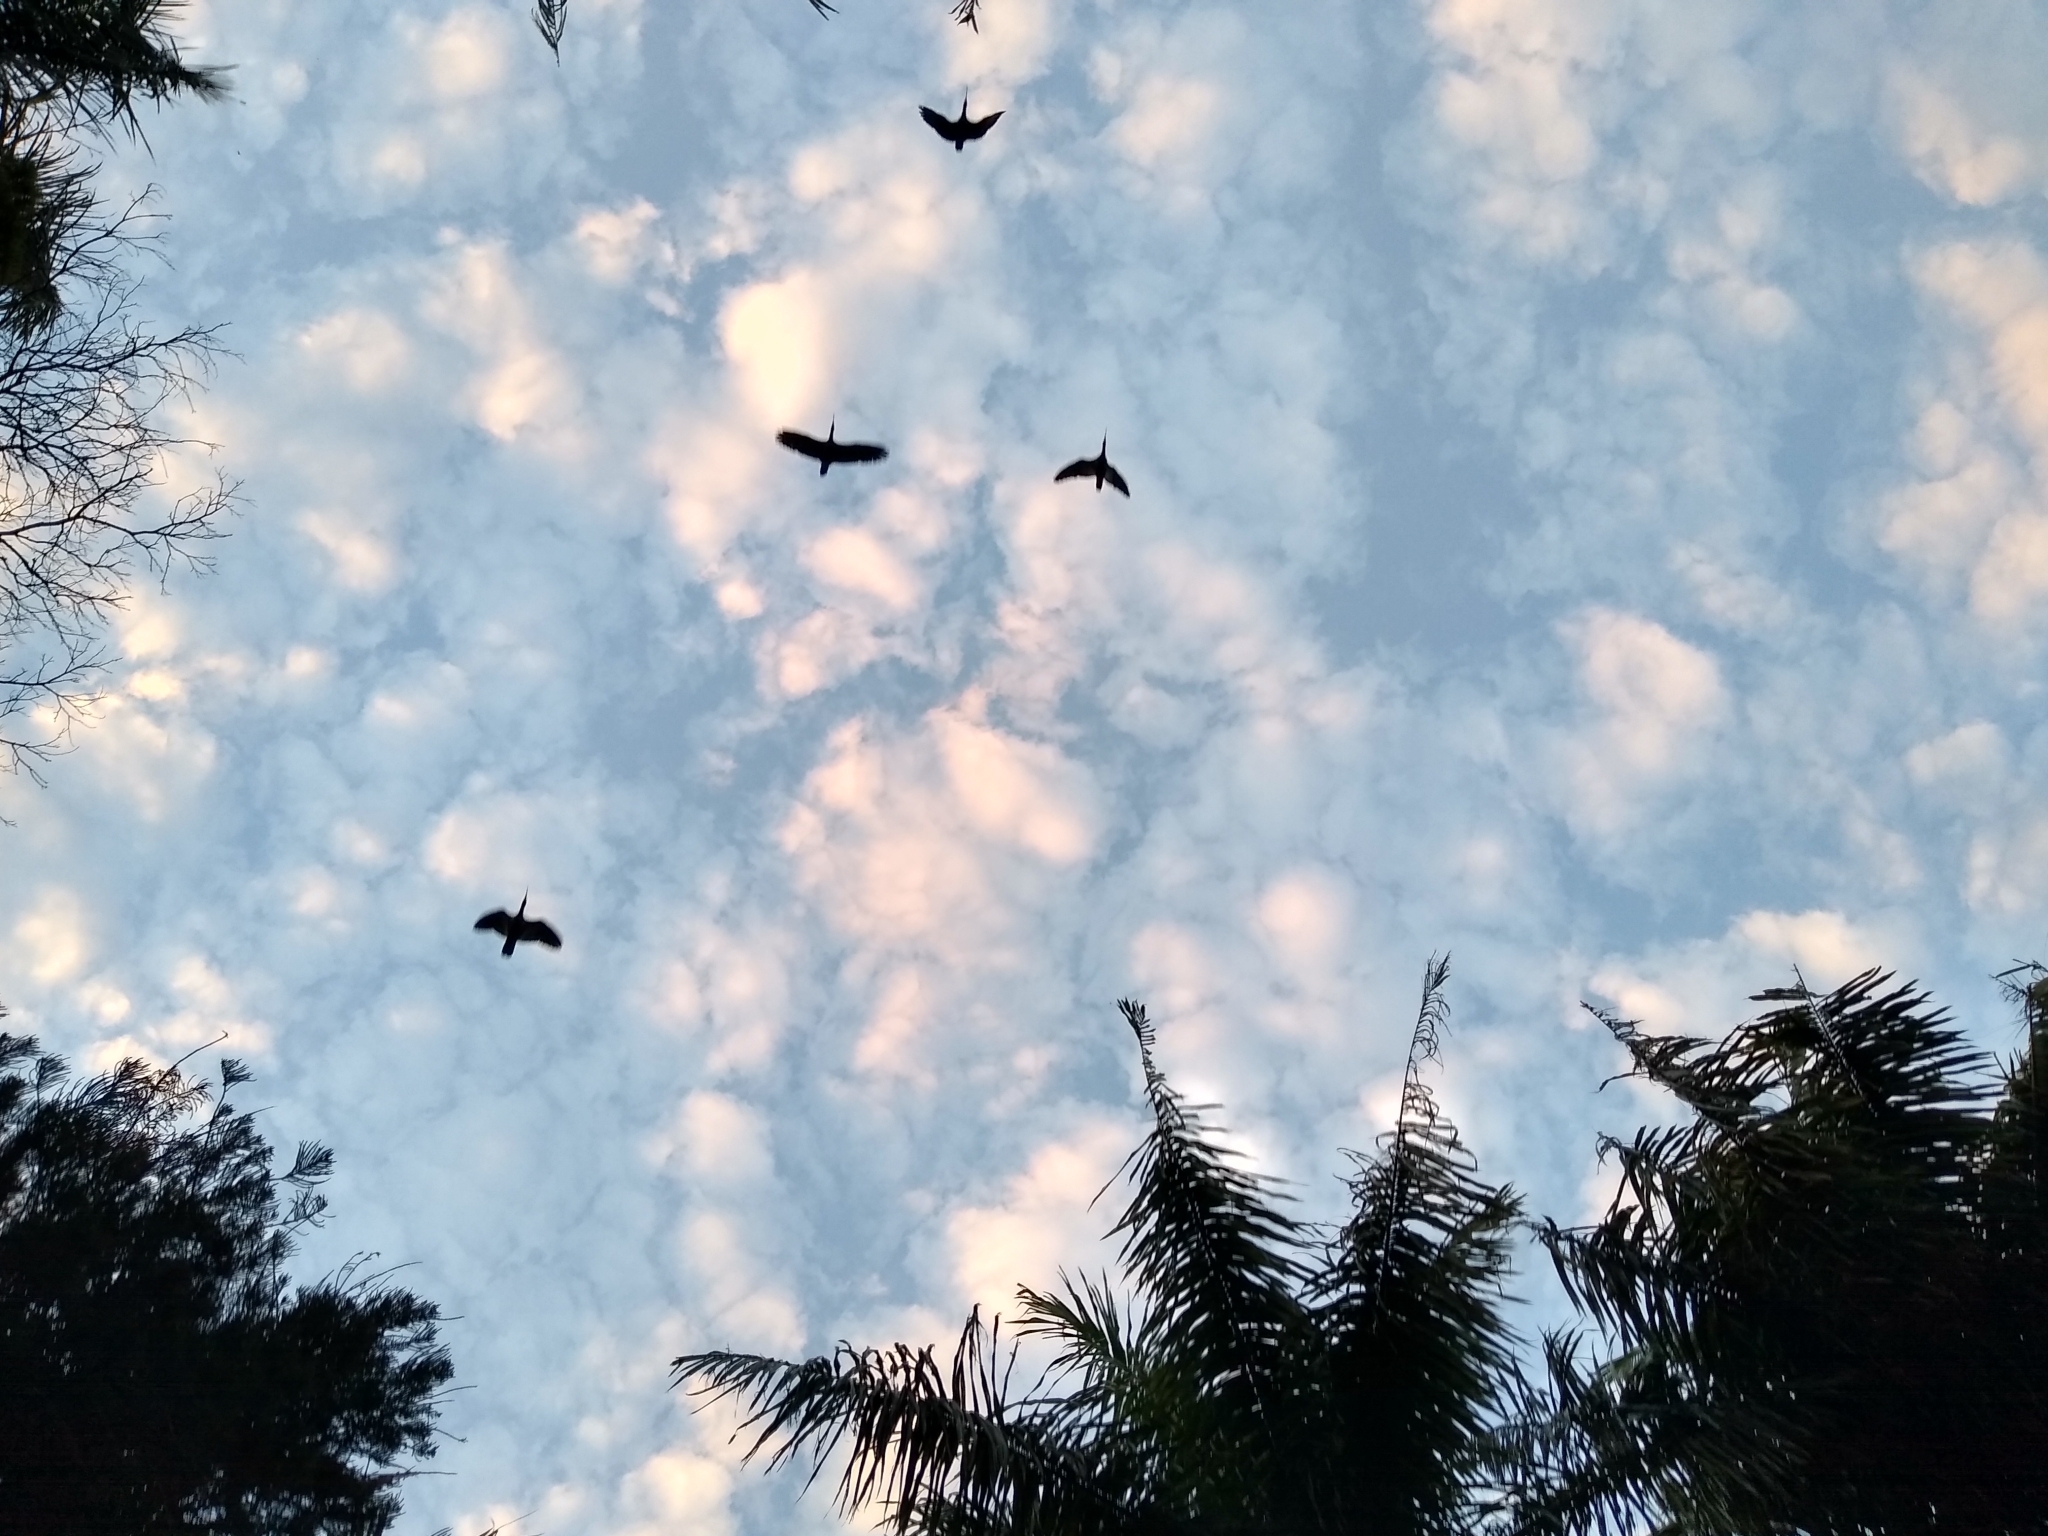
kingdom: Animalia
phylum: Chordata
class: Aves
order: Pelecaniformes
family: Threskiornithidae
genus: Theristicus
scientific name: Theristicus caudatus
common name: Buff-necked ibis
